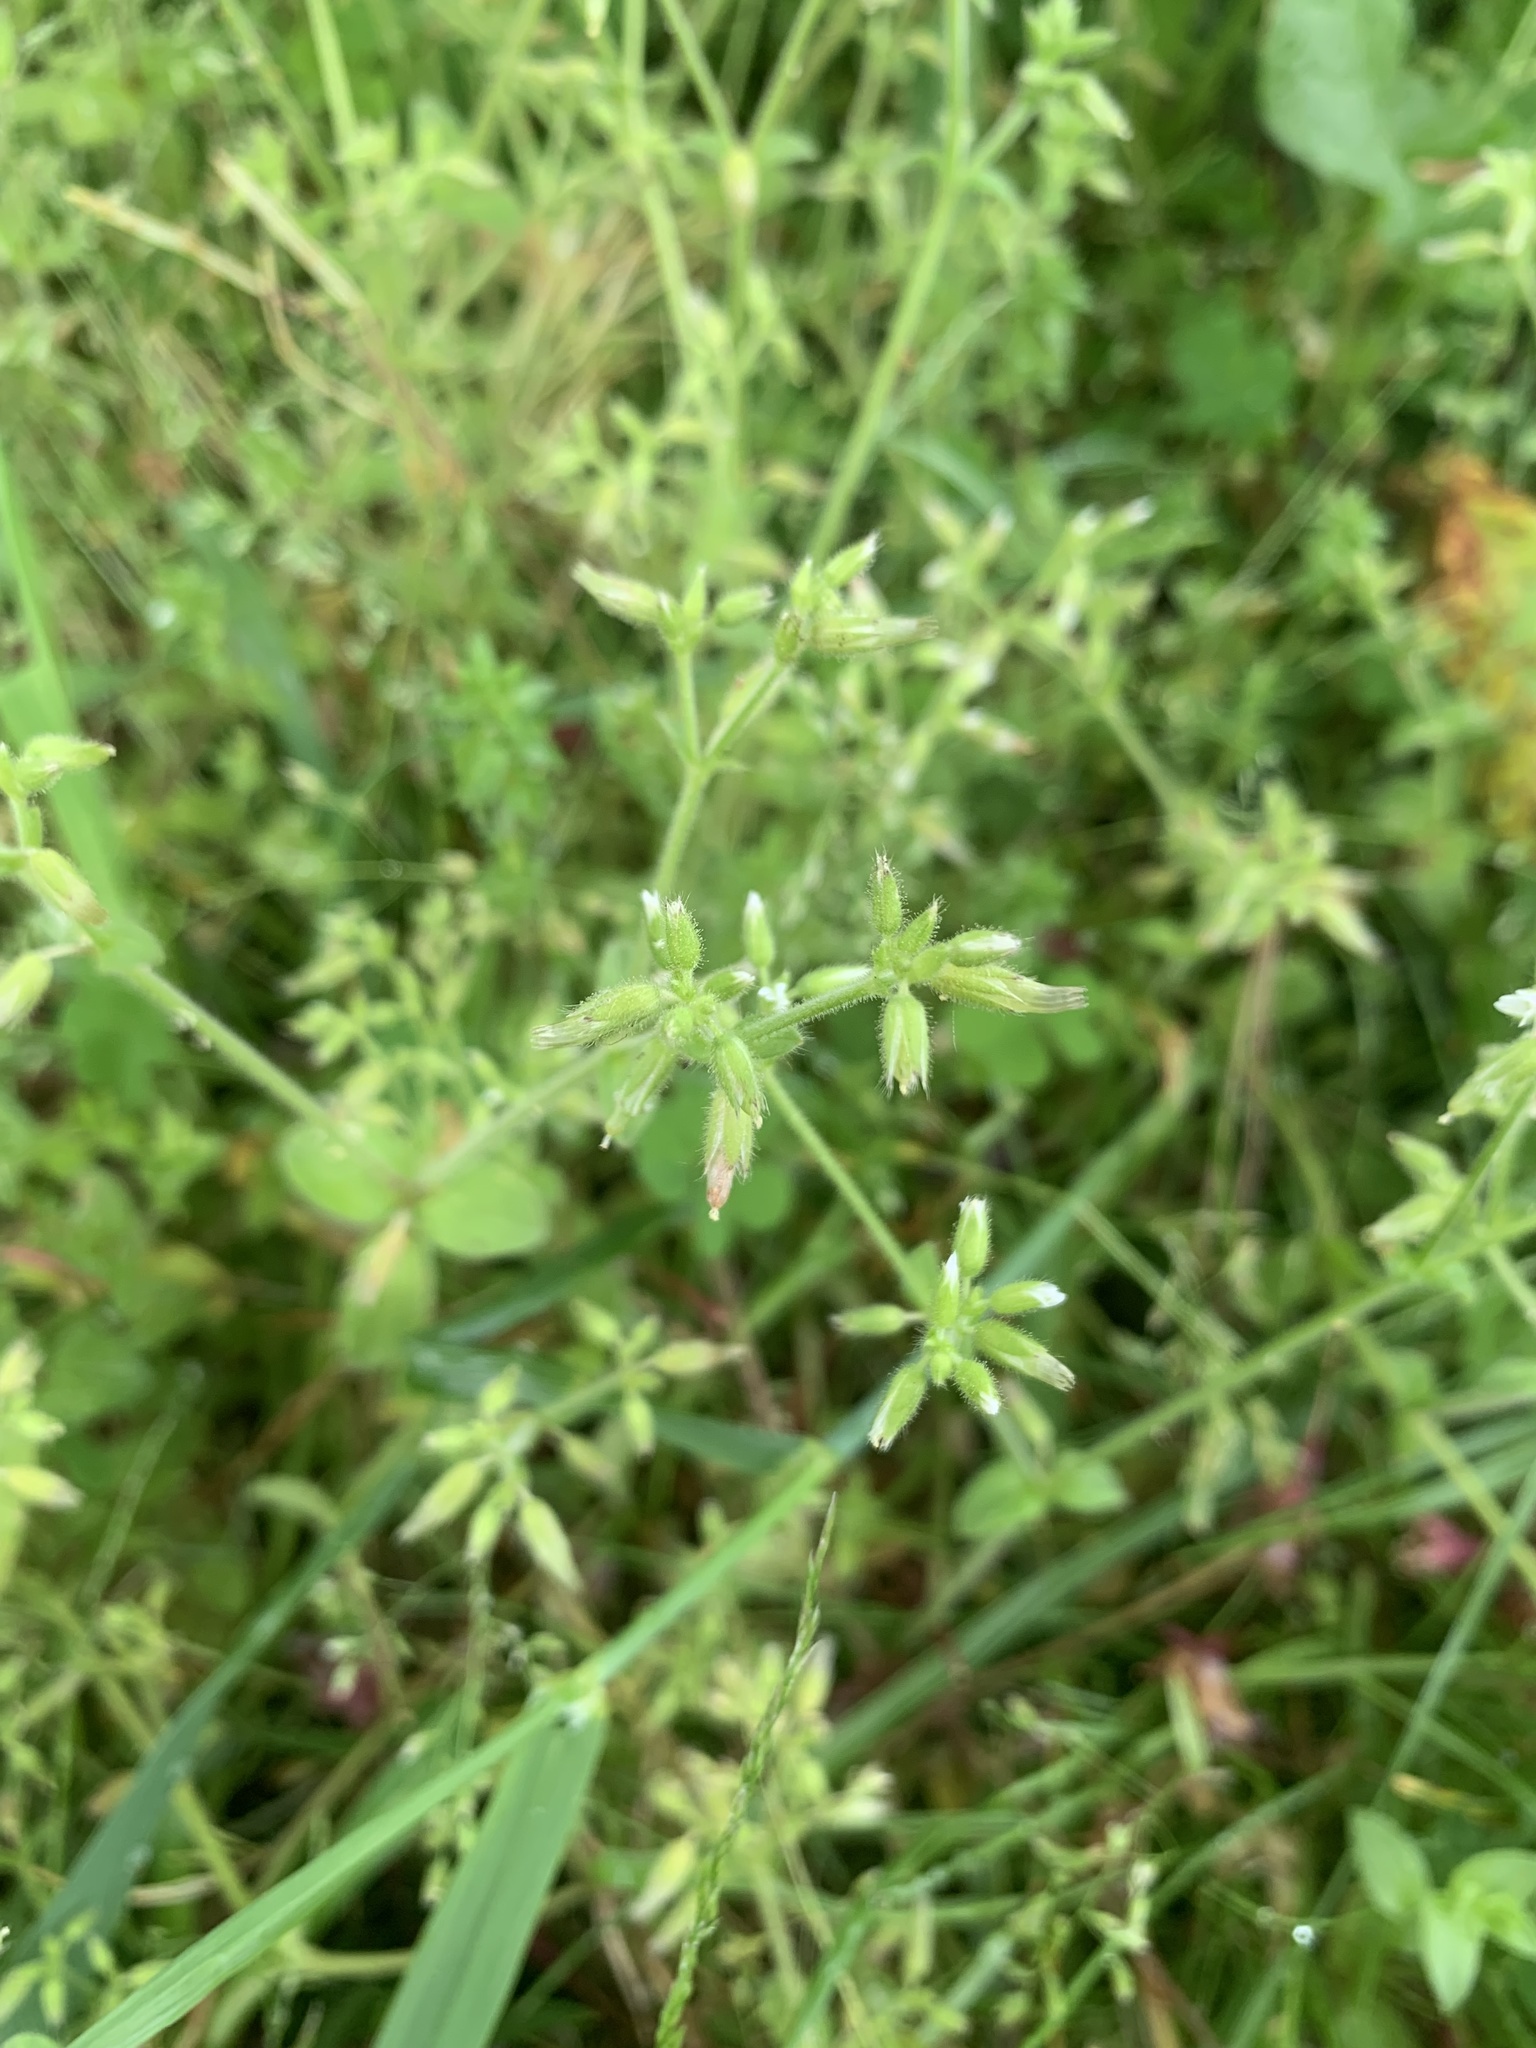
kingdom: Plantae
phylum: Tracheophyta
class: Magnoliopsida
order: Caryophyllales
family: Caryophyllaceae
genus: Cerastium
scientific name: Cerastium glomeratum
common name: Sticky chickweed
